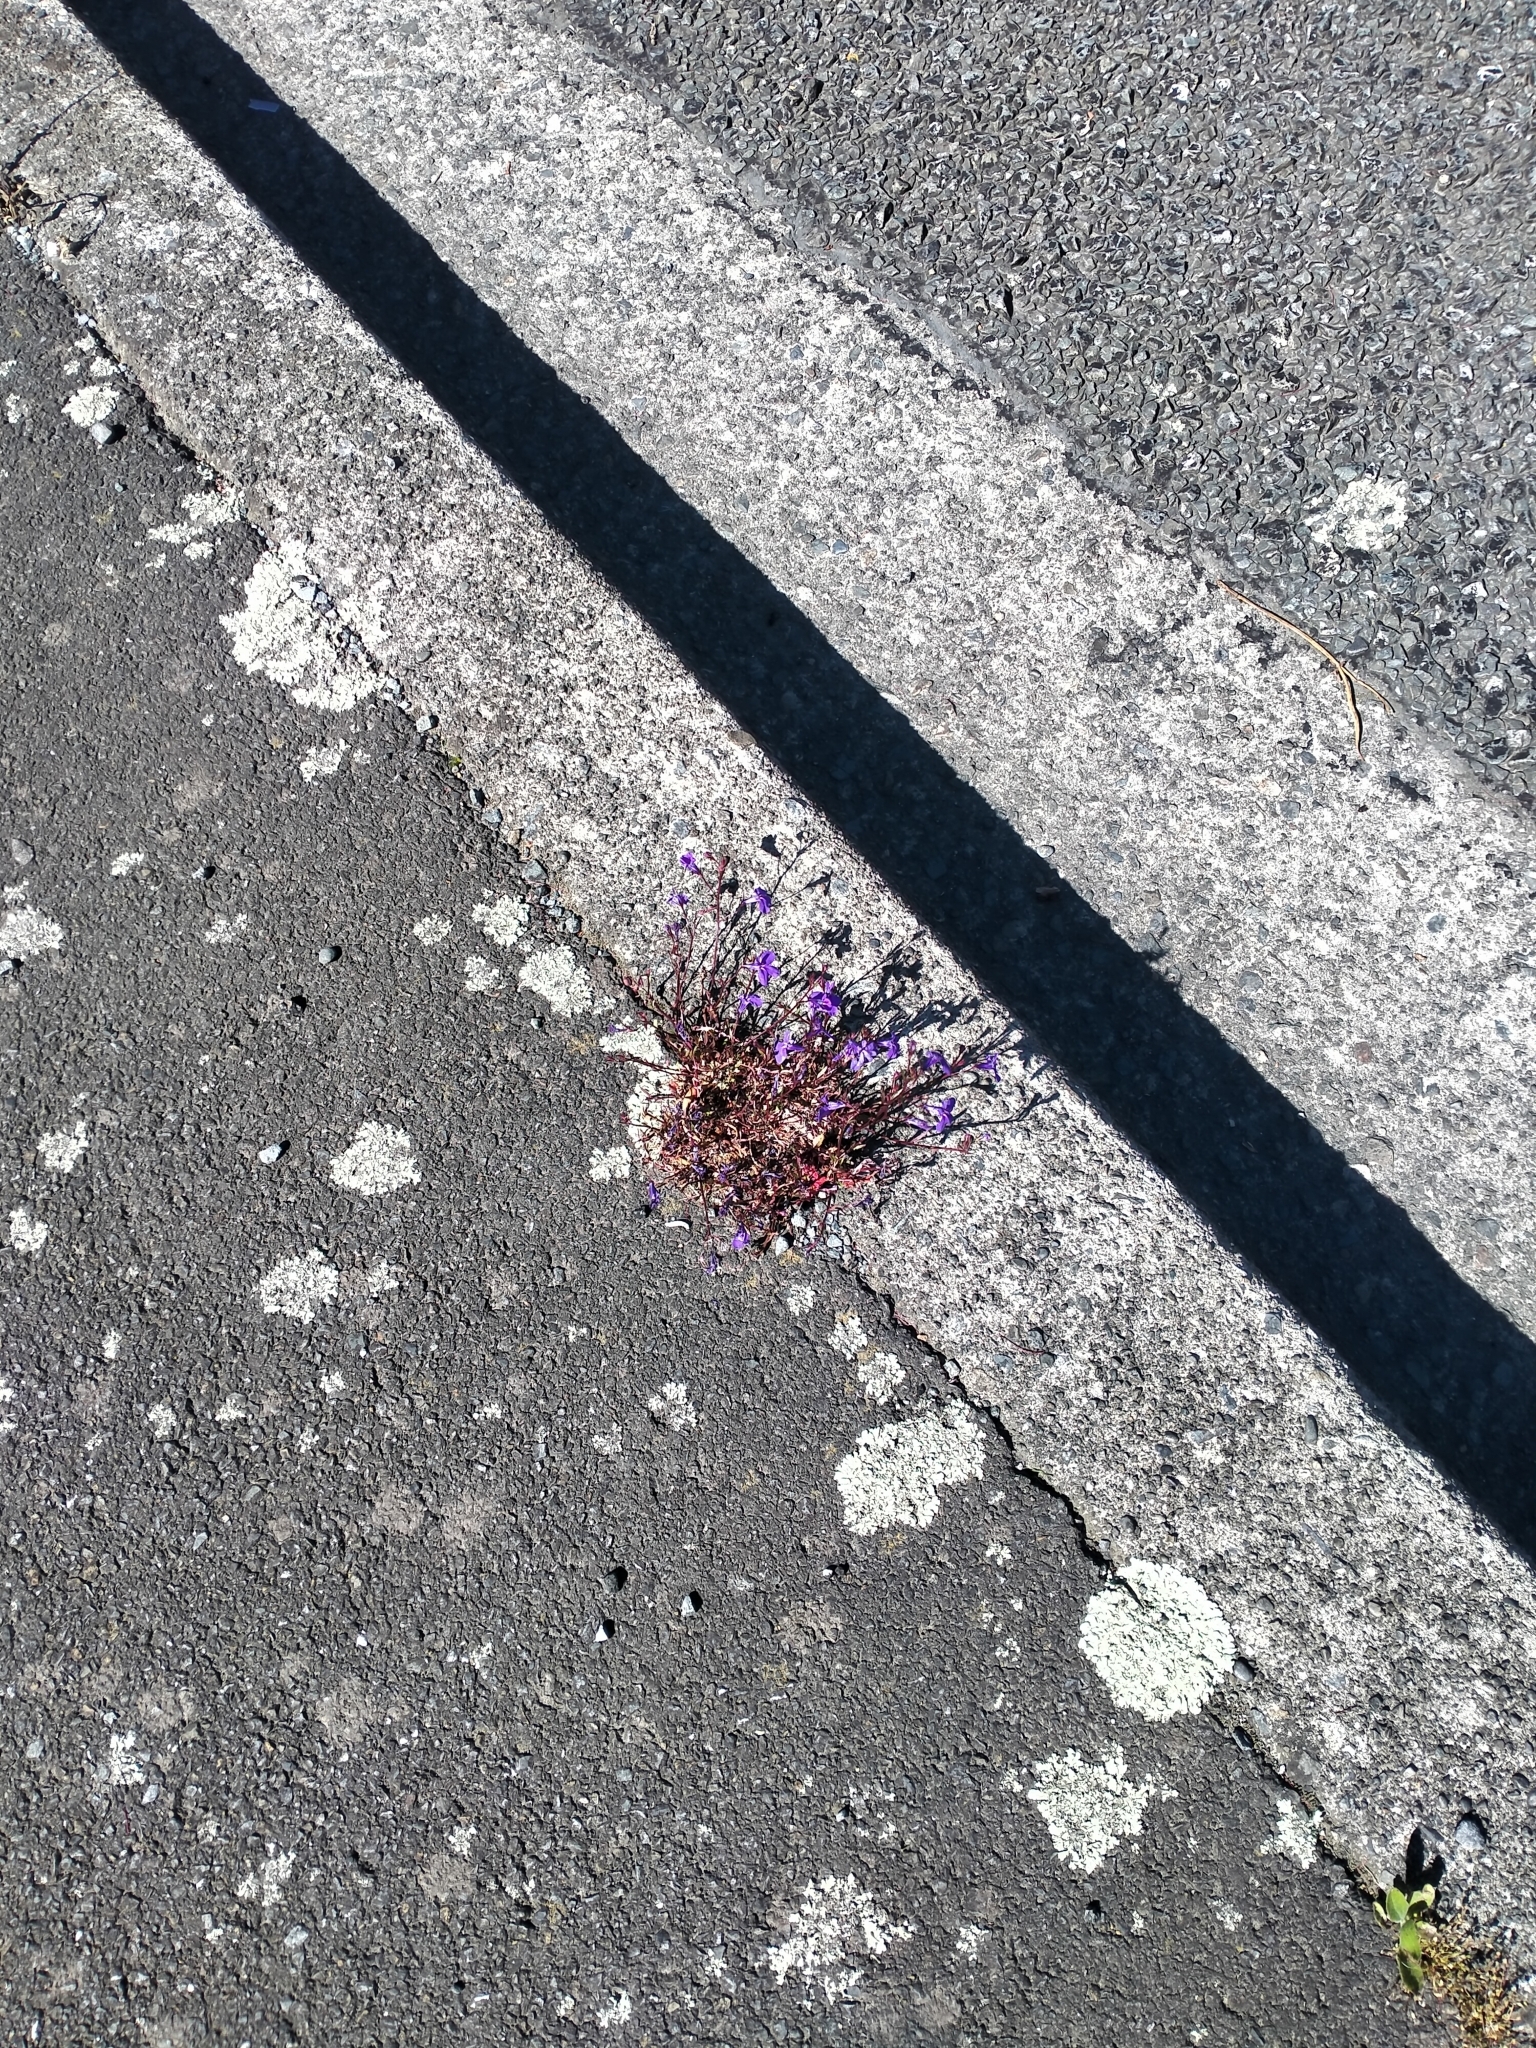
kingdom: Plantae
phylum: Tracheophyta
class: Magnoliopsida
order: Asterales
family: Campanulaceae
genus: Lobelia
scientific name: Lobelia erinus
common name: Edging lobelia
